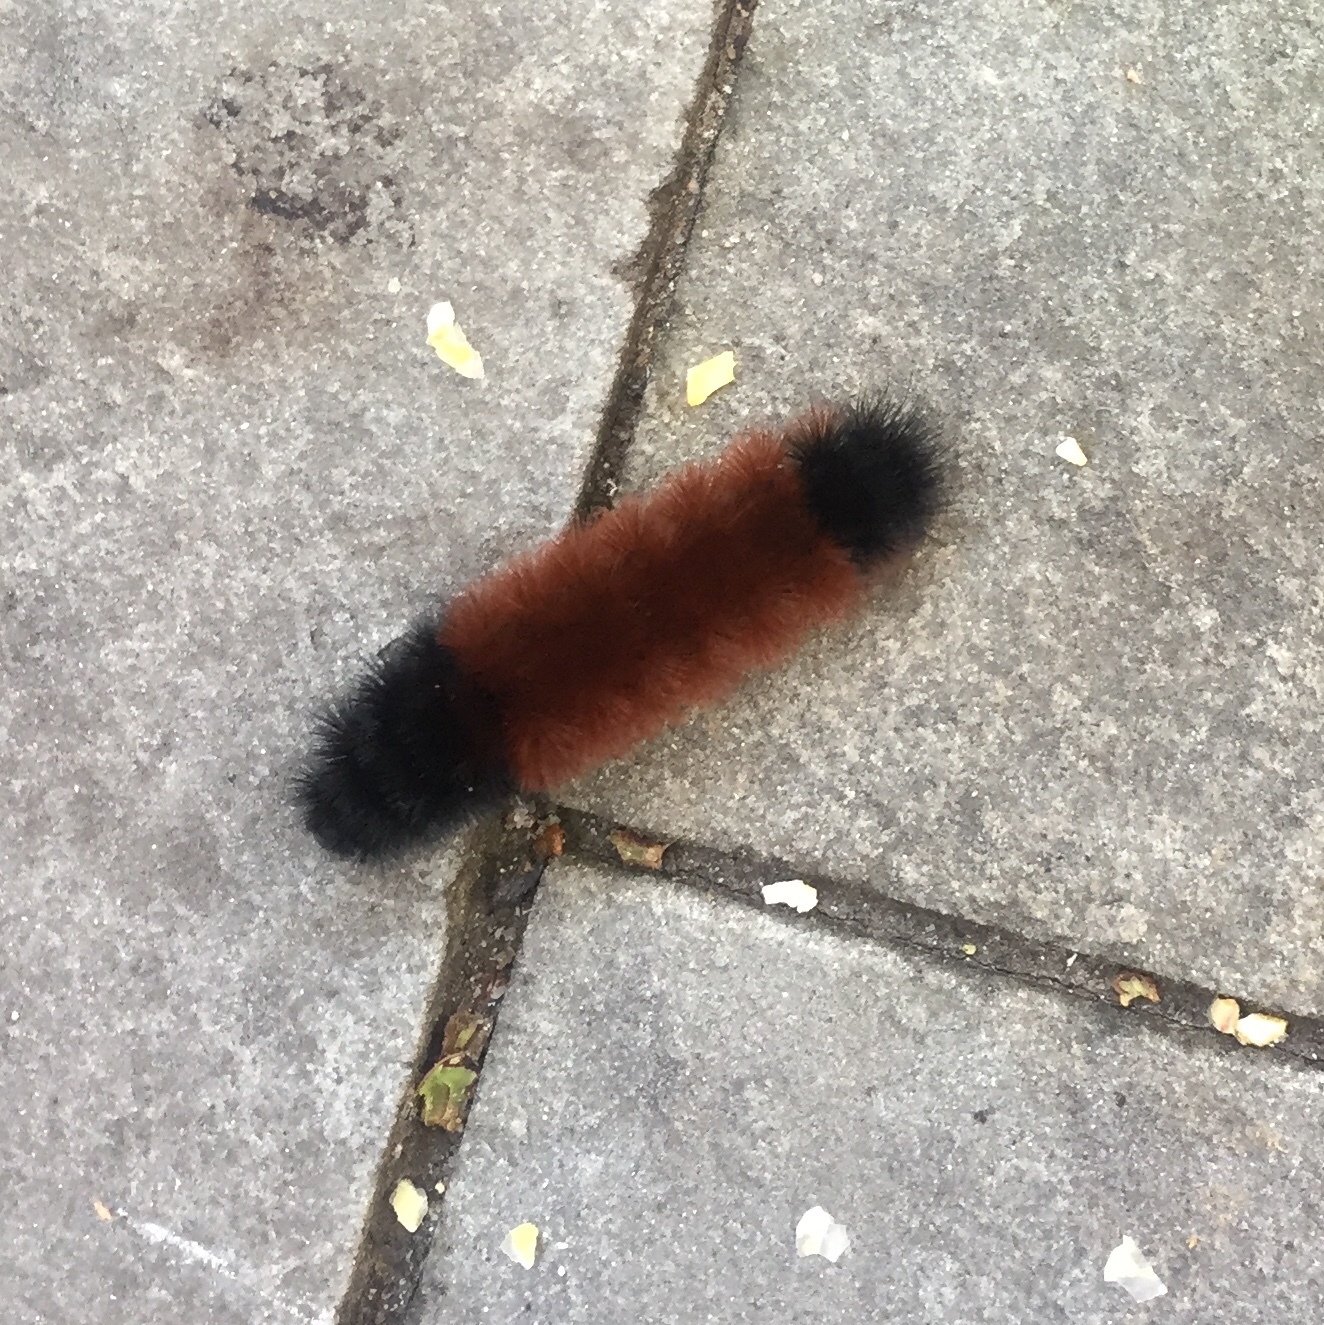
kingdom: Animalia
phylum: Arthropoda
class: Insecta
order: Lepidoptera
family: Erebidae
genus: Pyrrharctia
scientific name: Pyrrharctia isabella
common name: Isabella tiger moth
